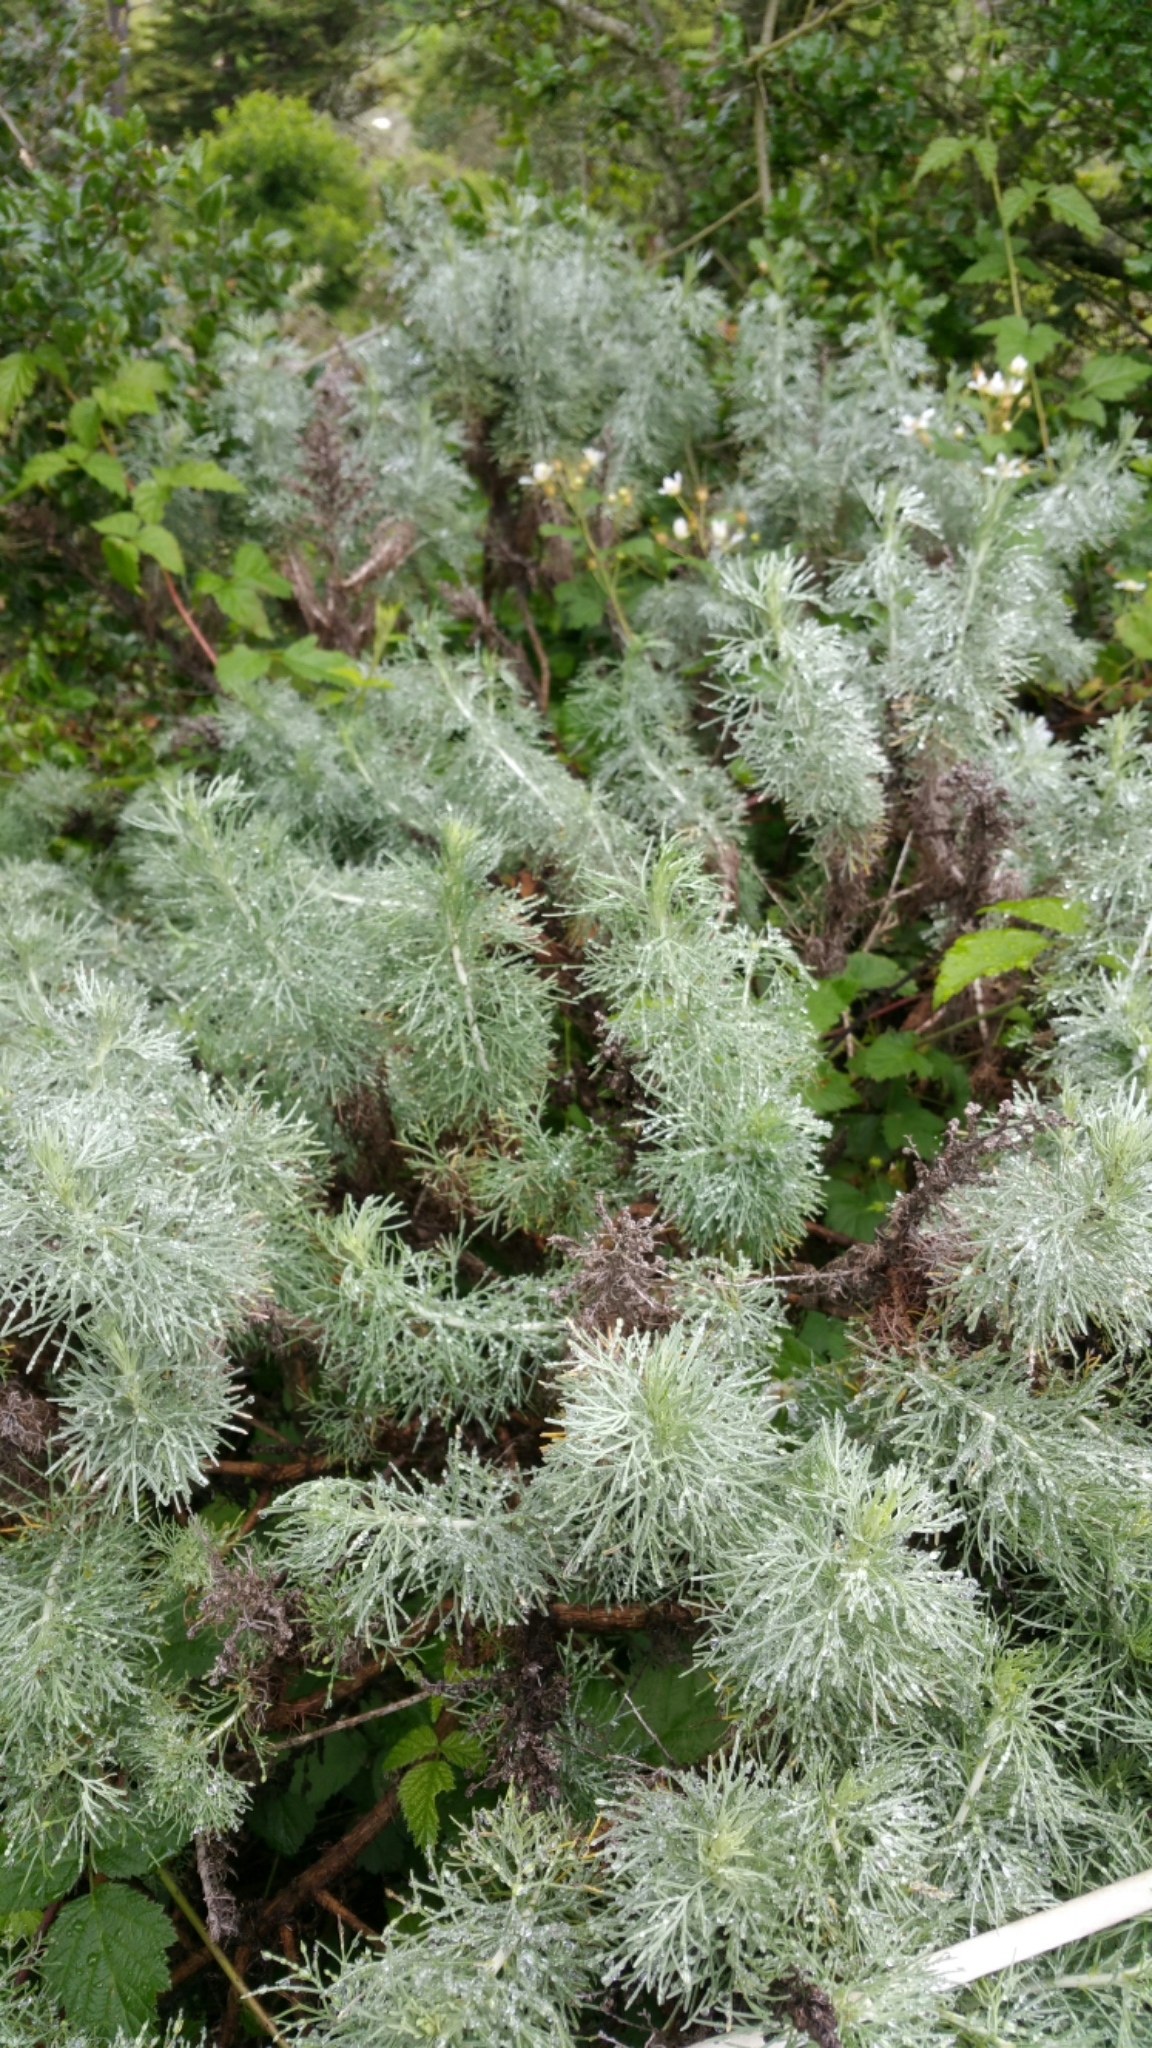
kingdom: Plantae
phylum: Tracheophyta
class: Magnoliopsida
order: Asterales
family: Asteraceae
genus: Artemisia
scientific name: Artemisia californica
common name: California sagebrush
